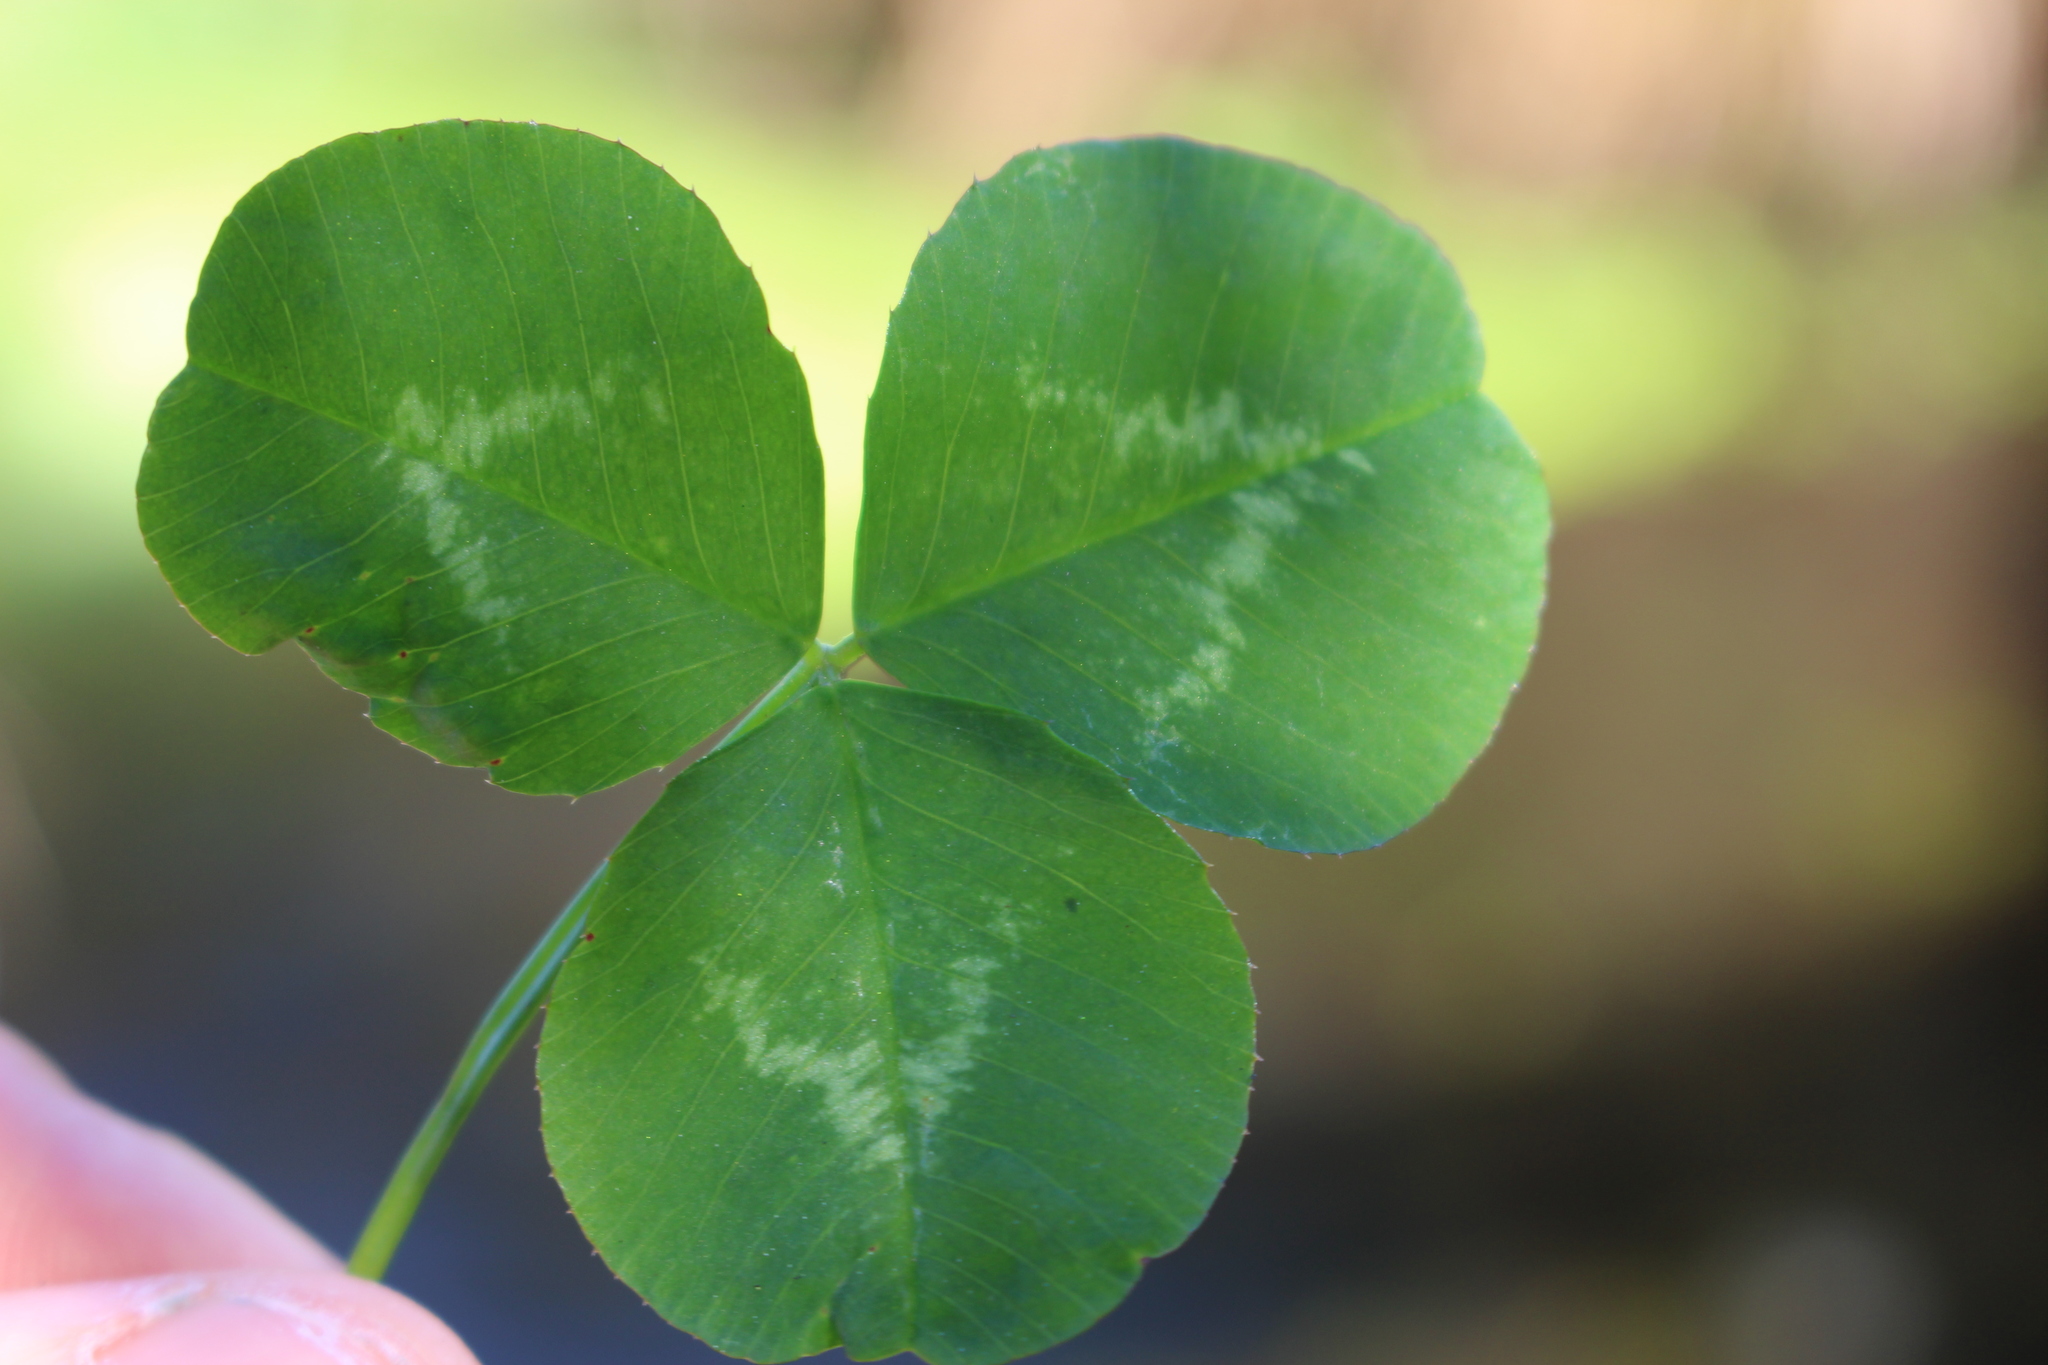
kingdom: Plantae
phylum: Tracheophyta
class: Magnoliopsida
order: Fabales
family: Fabaceae
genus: Trifolium
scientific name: Trifolium repens
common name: White clover
